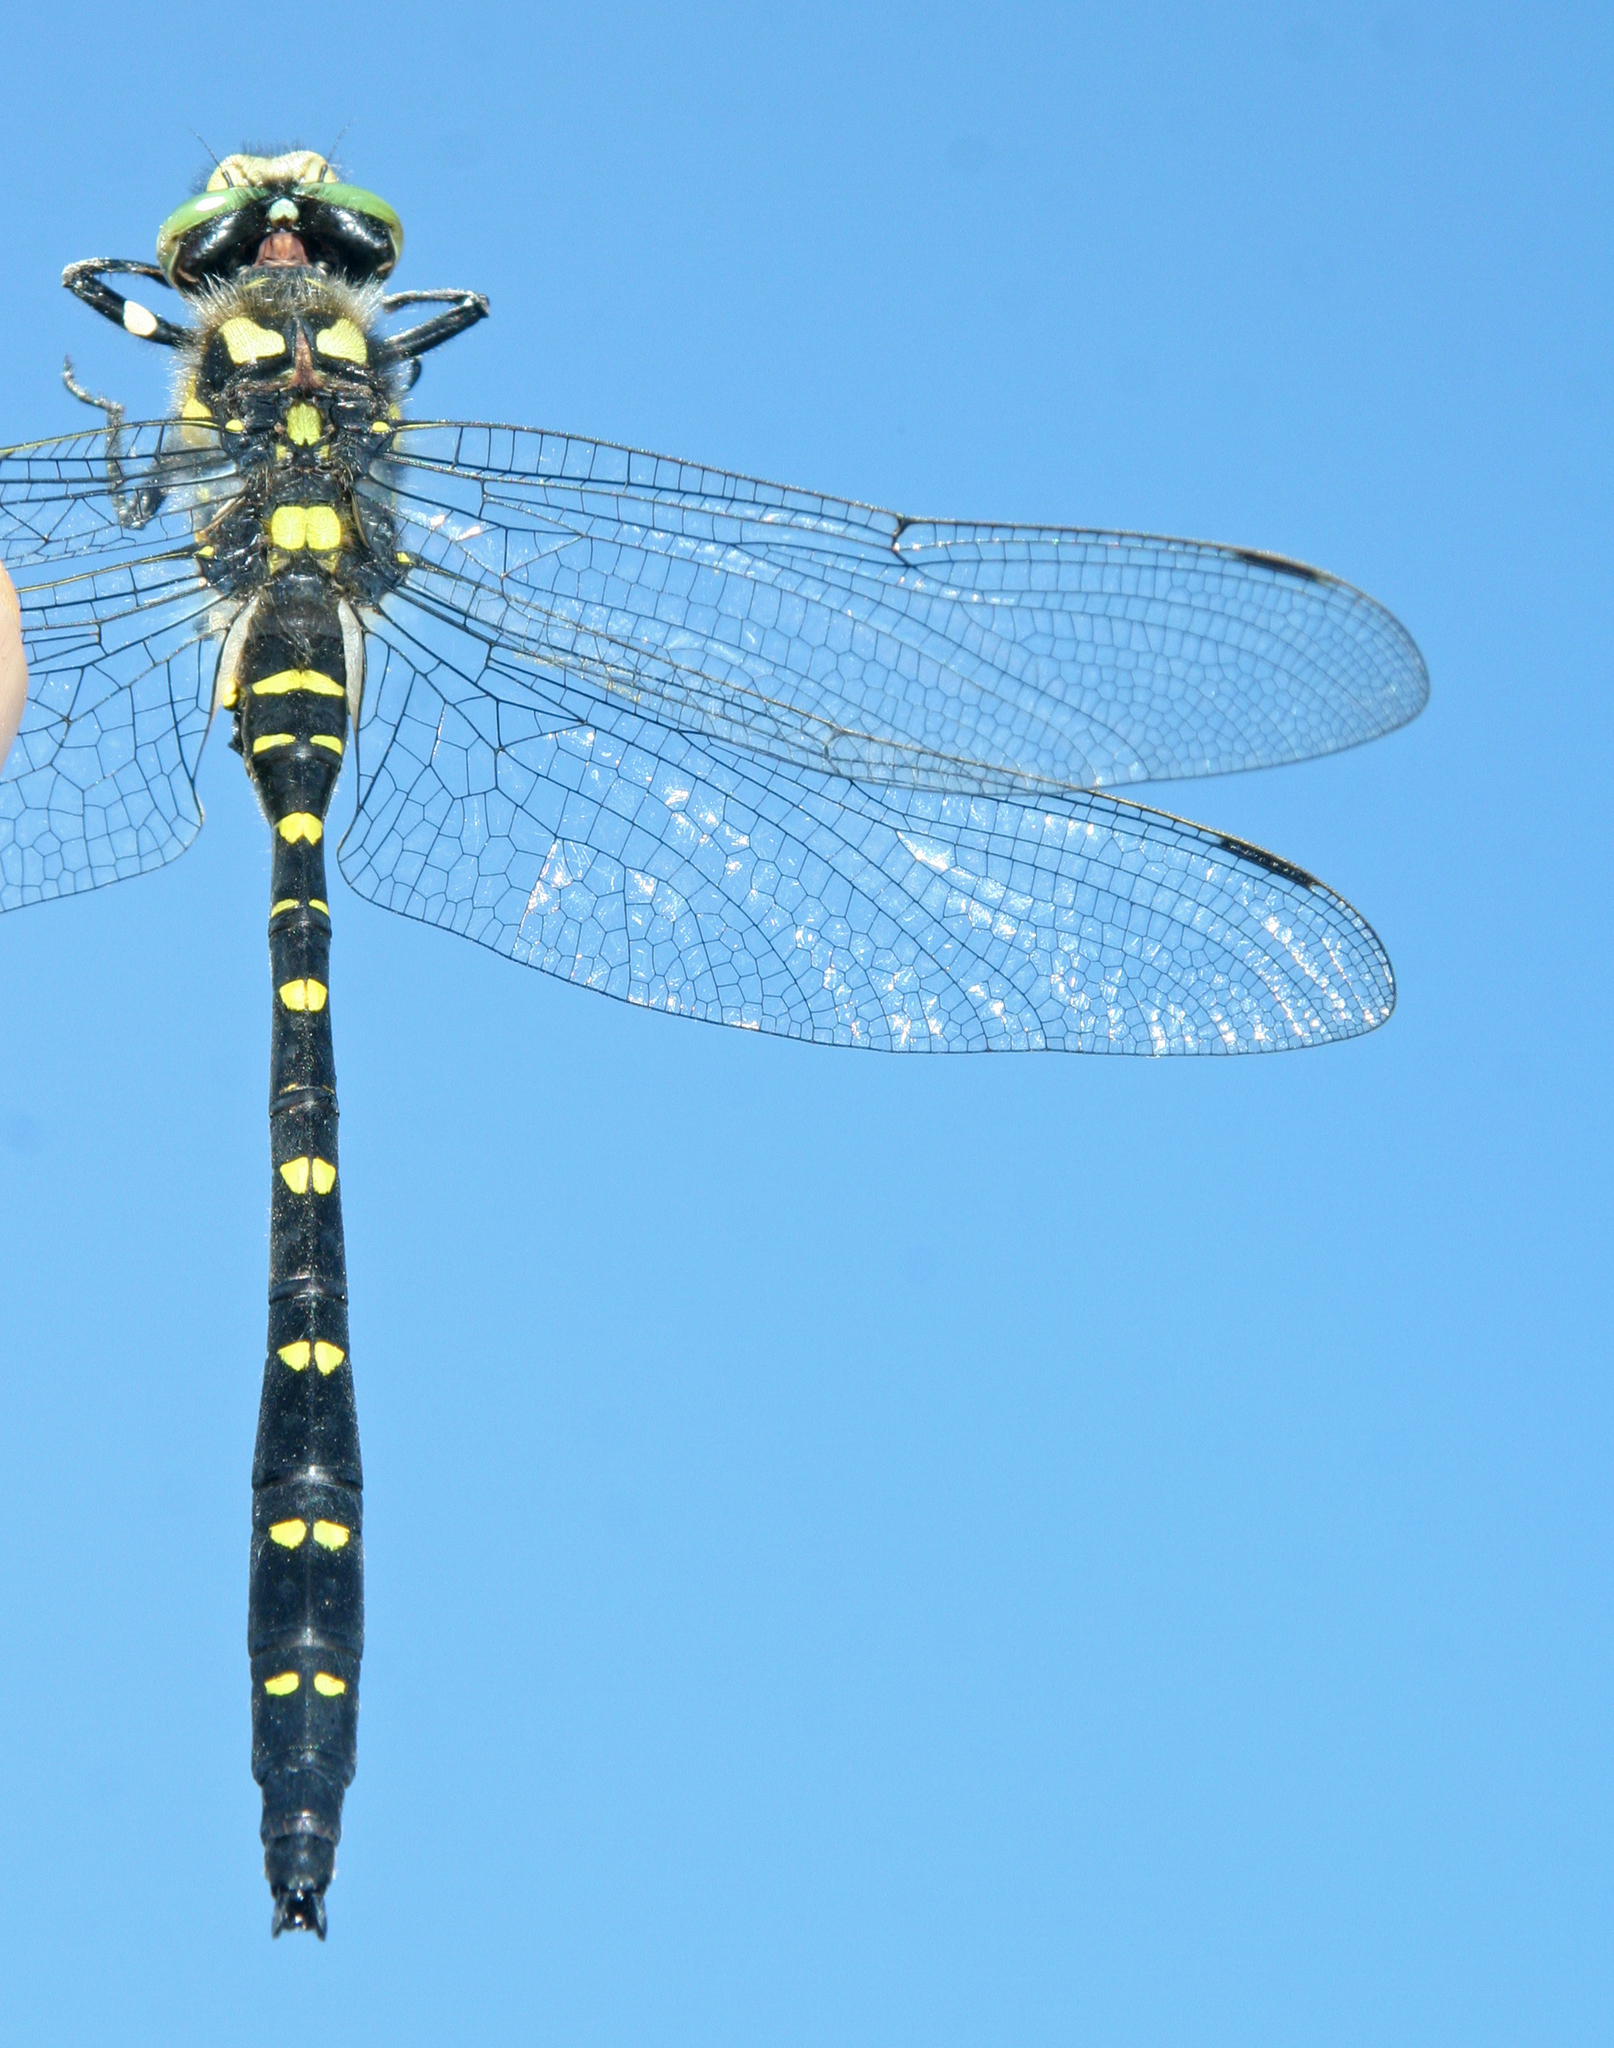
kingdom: Animalia
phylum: Arthropoda
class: Insecta
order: Odonata
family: Cordulegastridae
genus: Cordulegaster
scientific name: Cordulegaster mzymtae
